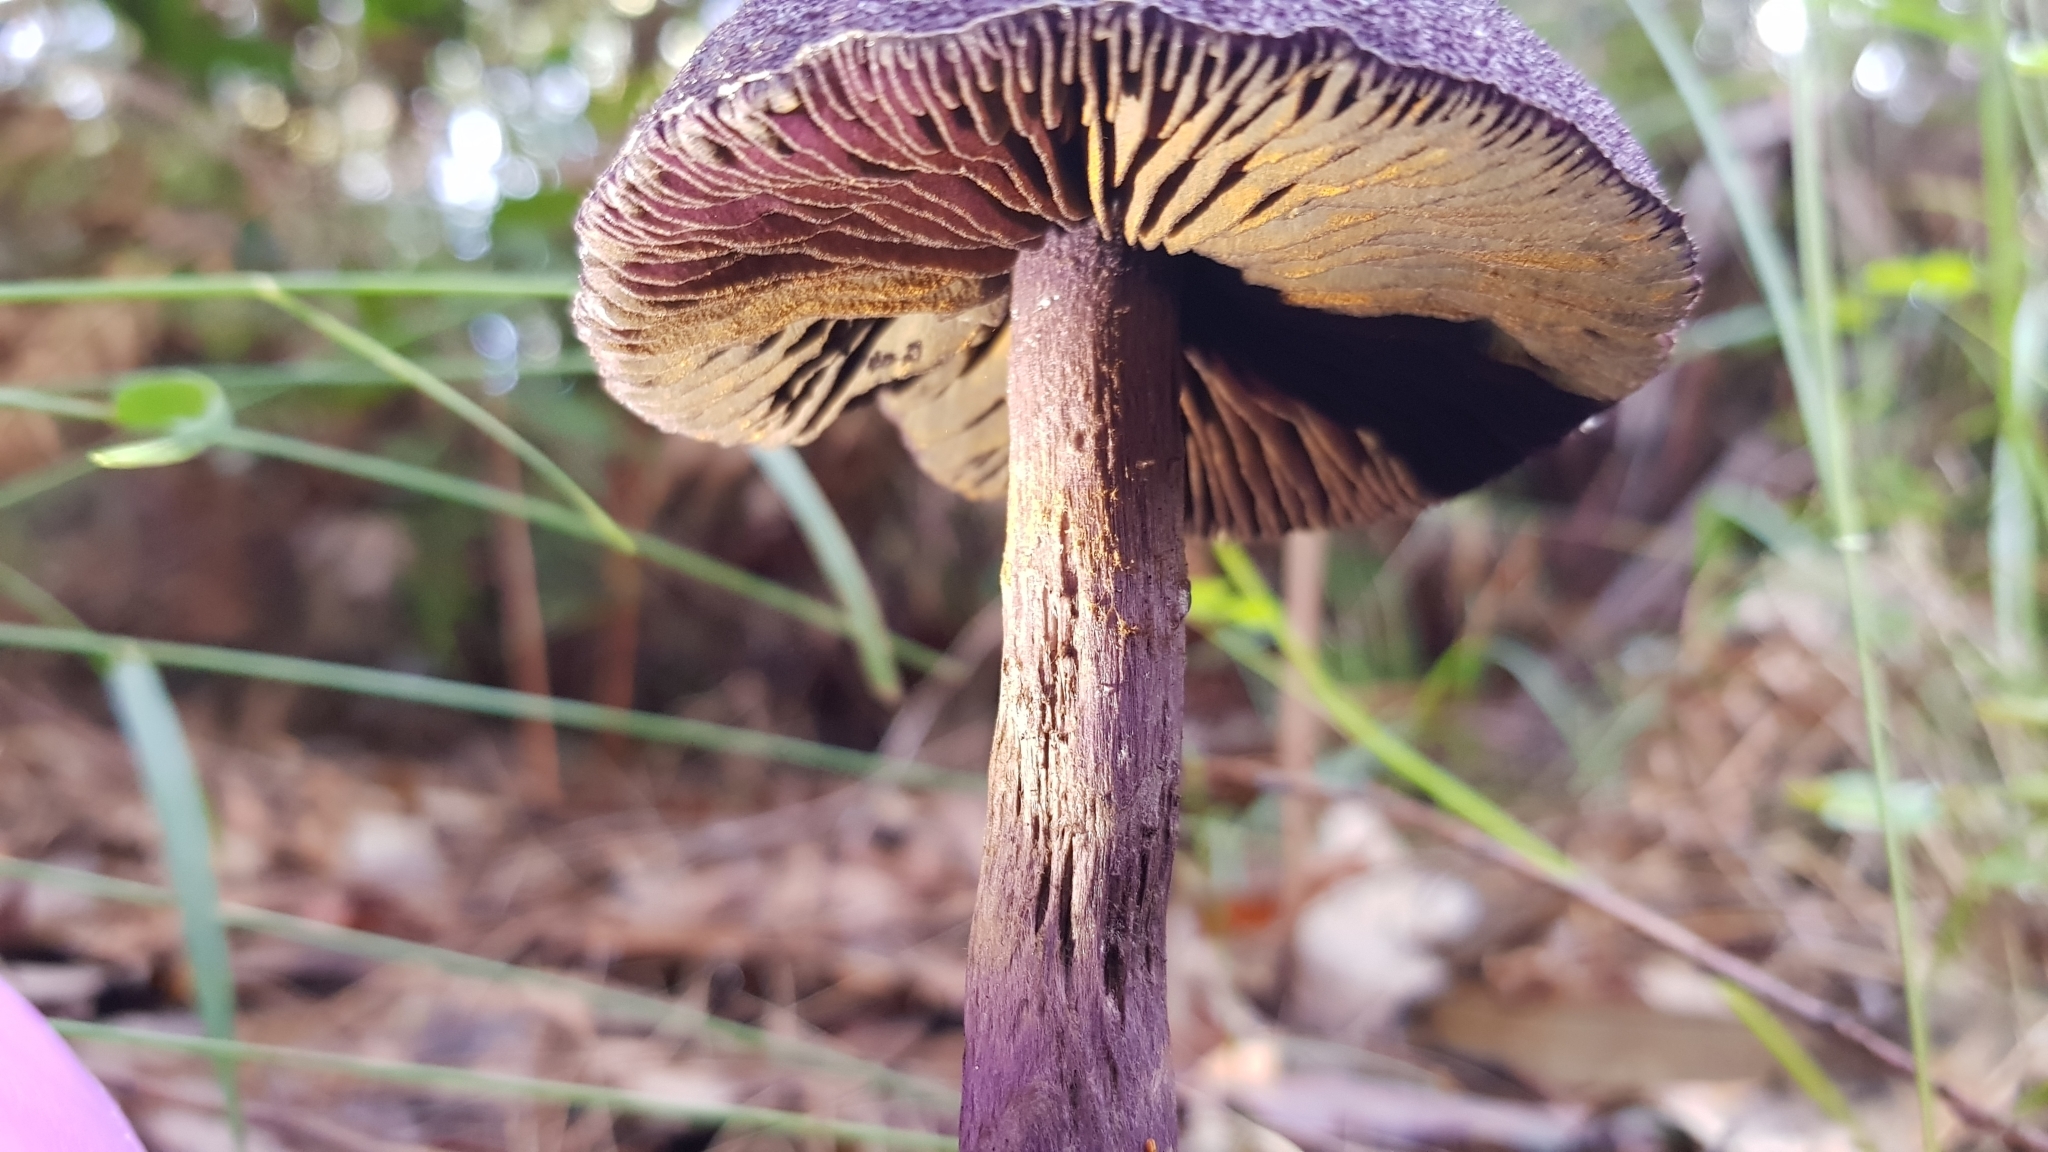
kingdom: Fungi
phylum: Basidiomycota
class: Agaricomycetes
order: Agaricales
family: Cortinariaceae
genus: Cortinarius
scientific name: Cortinarius kioloensis
